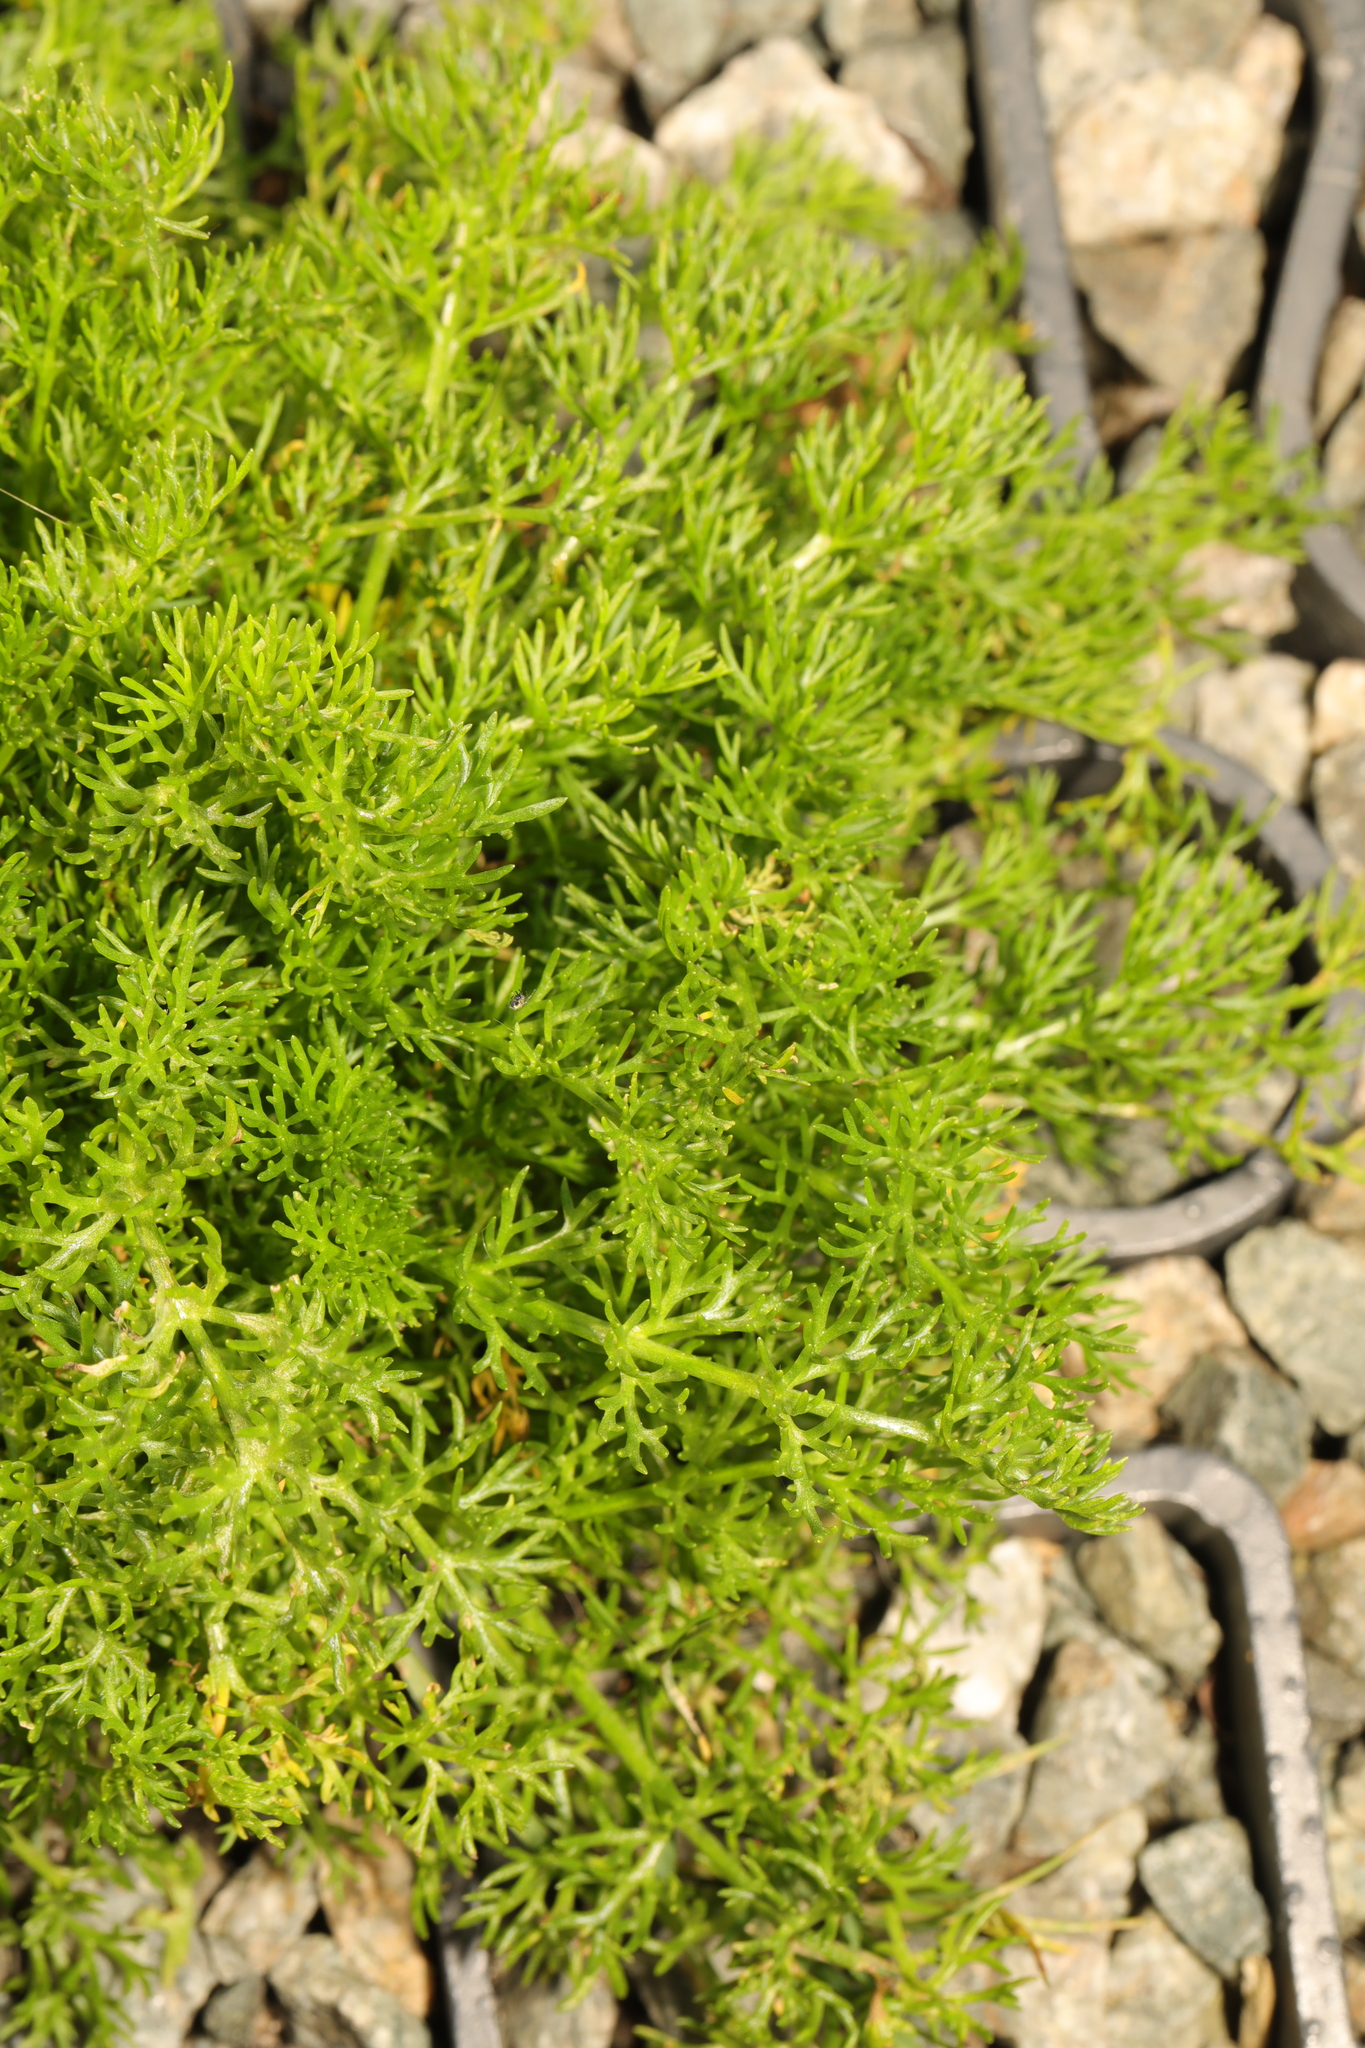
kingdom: Plantae
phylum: Tracheophyta
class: Magnoliopsida
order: Asterales
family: Asteraceae
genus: Tripleurospermum
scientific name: Tripleurospermum maritimum
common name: Sea mayweed
